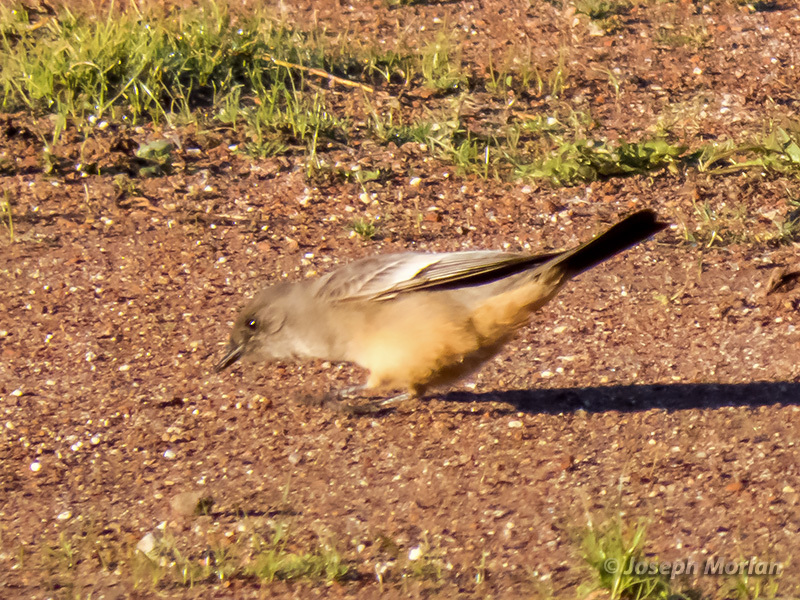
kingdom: Animalia
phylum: Chordata
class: Aves
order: Passeriformes
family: Tyrannidae
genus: Sayornis
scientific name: Sayornis saya
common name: Say's phoebe
